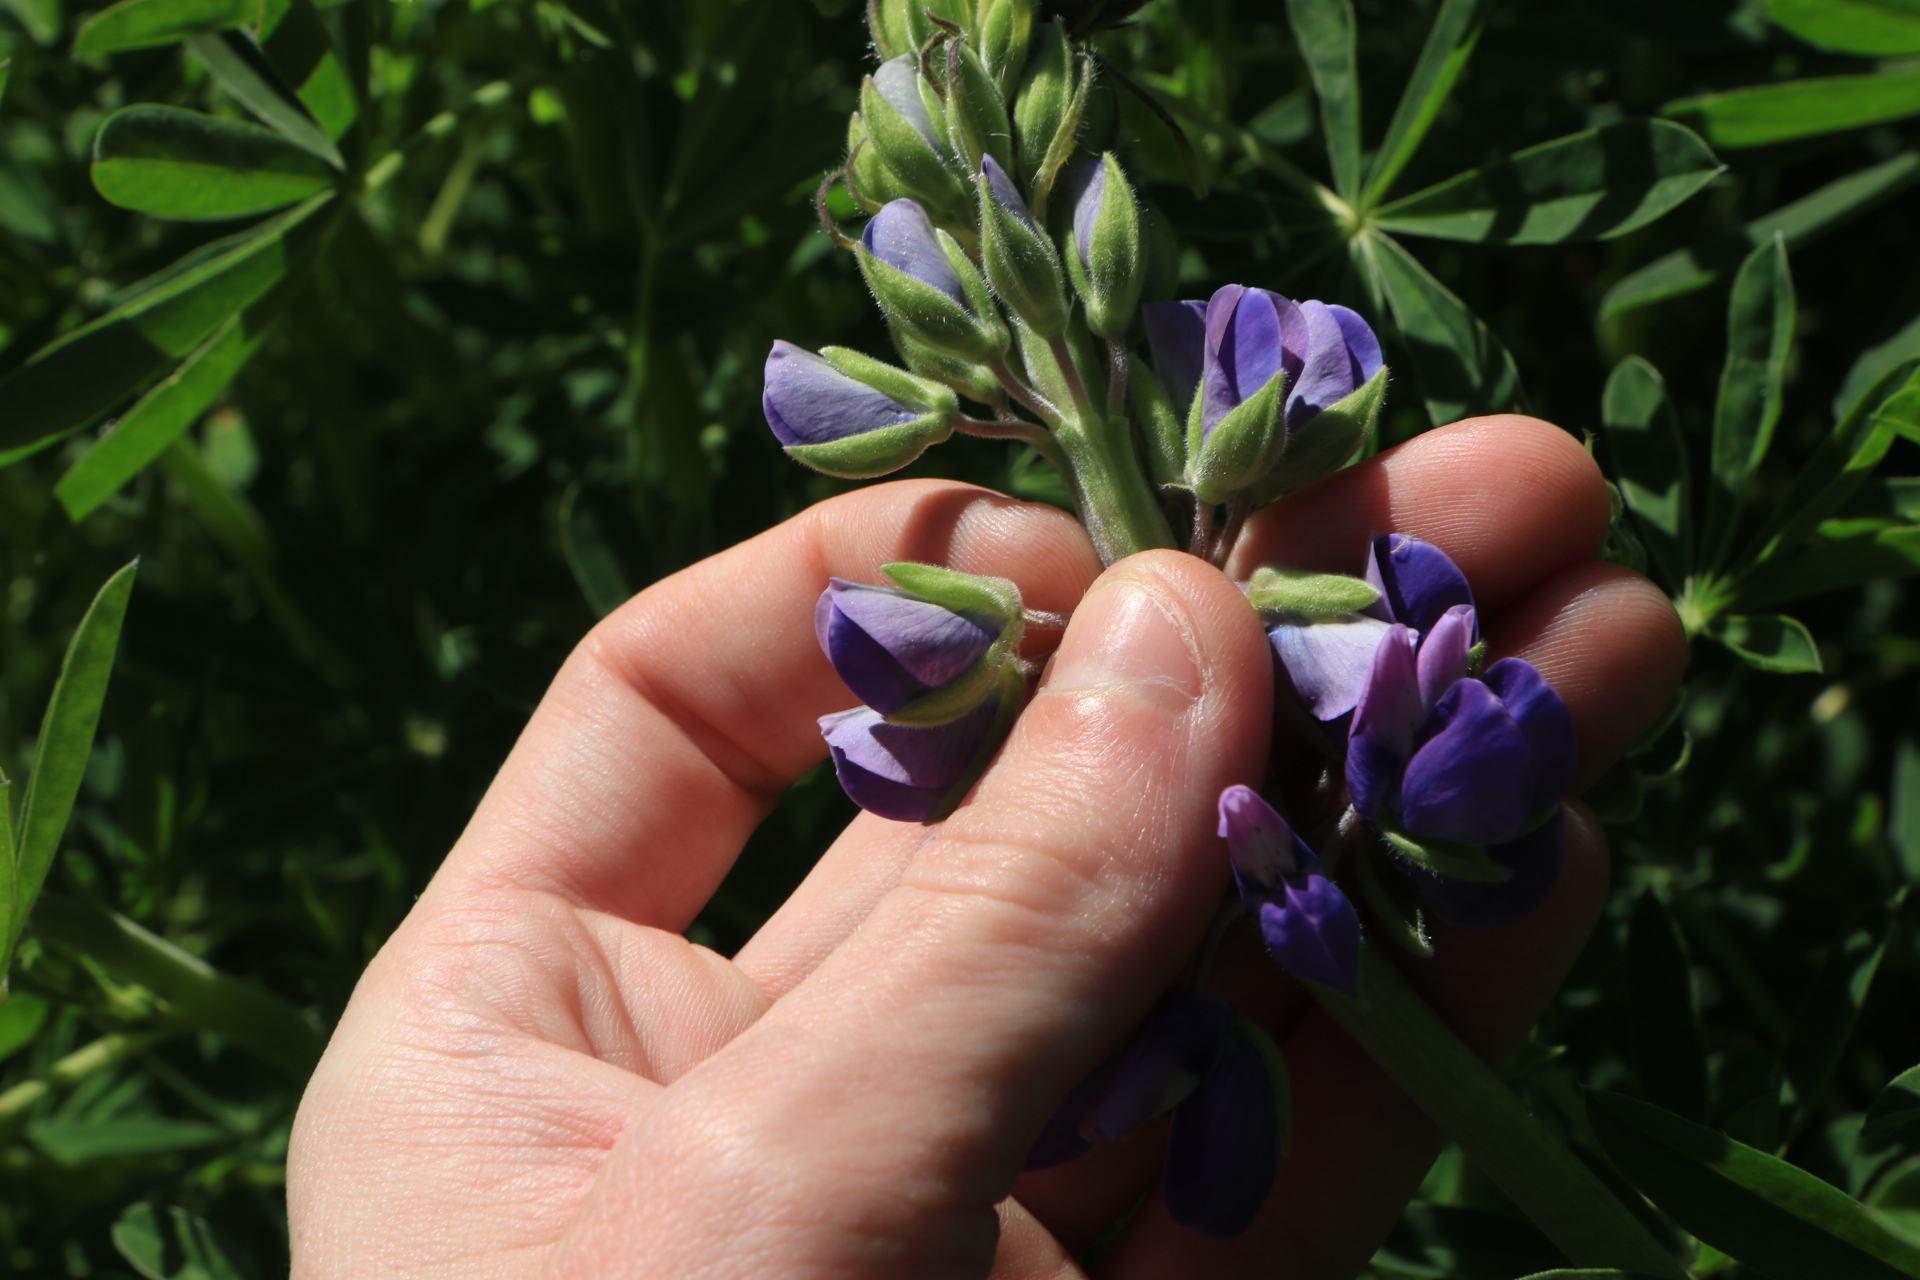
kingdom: Plantae
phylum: Tracheophyta
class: Magnoliopsida
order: Fabales
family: Fabaceae
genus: Lupinus
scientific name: Lupinus rivularis
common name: Riverbank lupine
